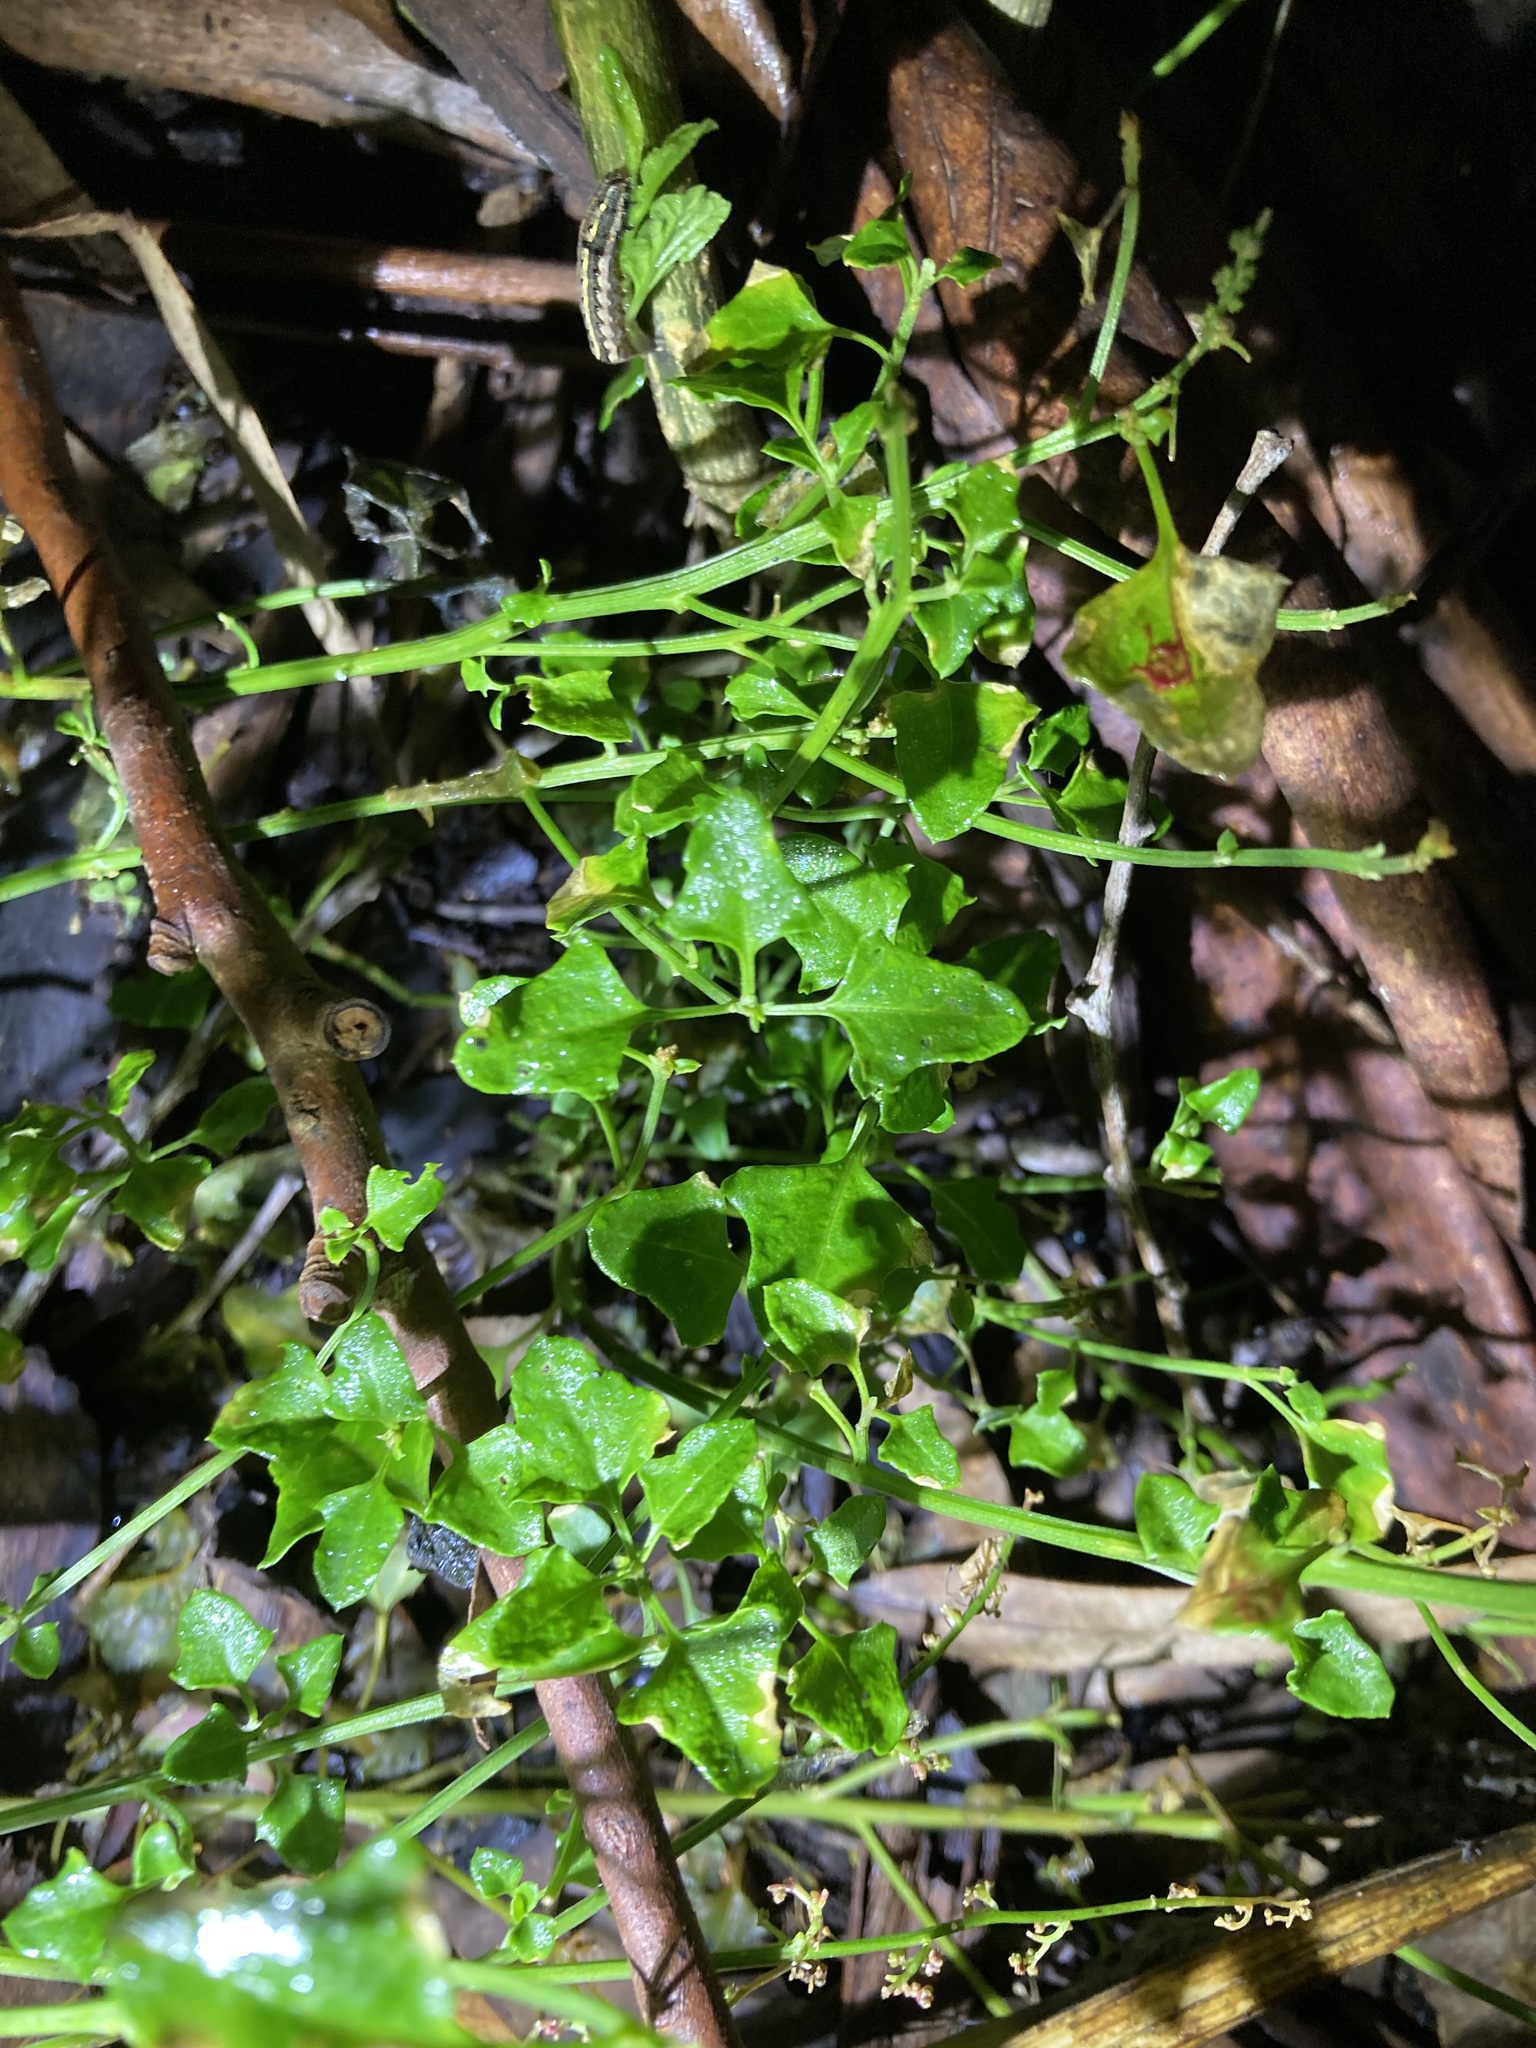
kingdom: Plantae
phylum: Tracheophyta
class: Magnoliopsida
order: Caryophyllales
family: Amaranthaceae
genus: Chenopodium
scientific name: Chenopodium robertianum
